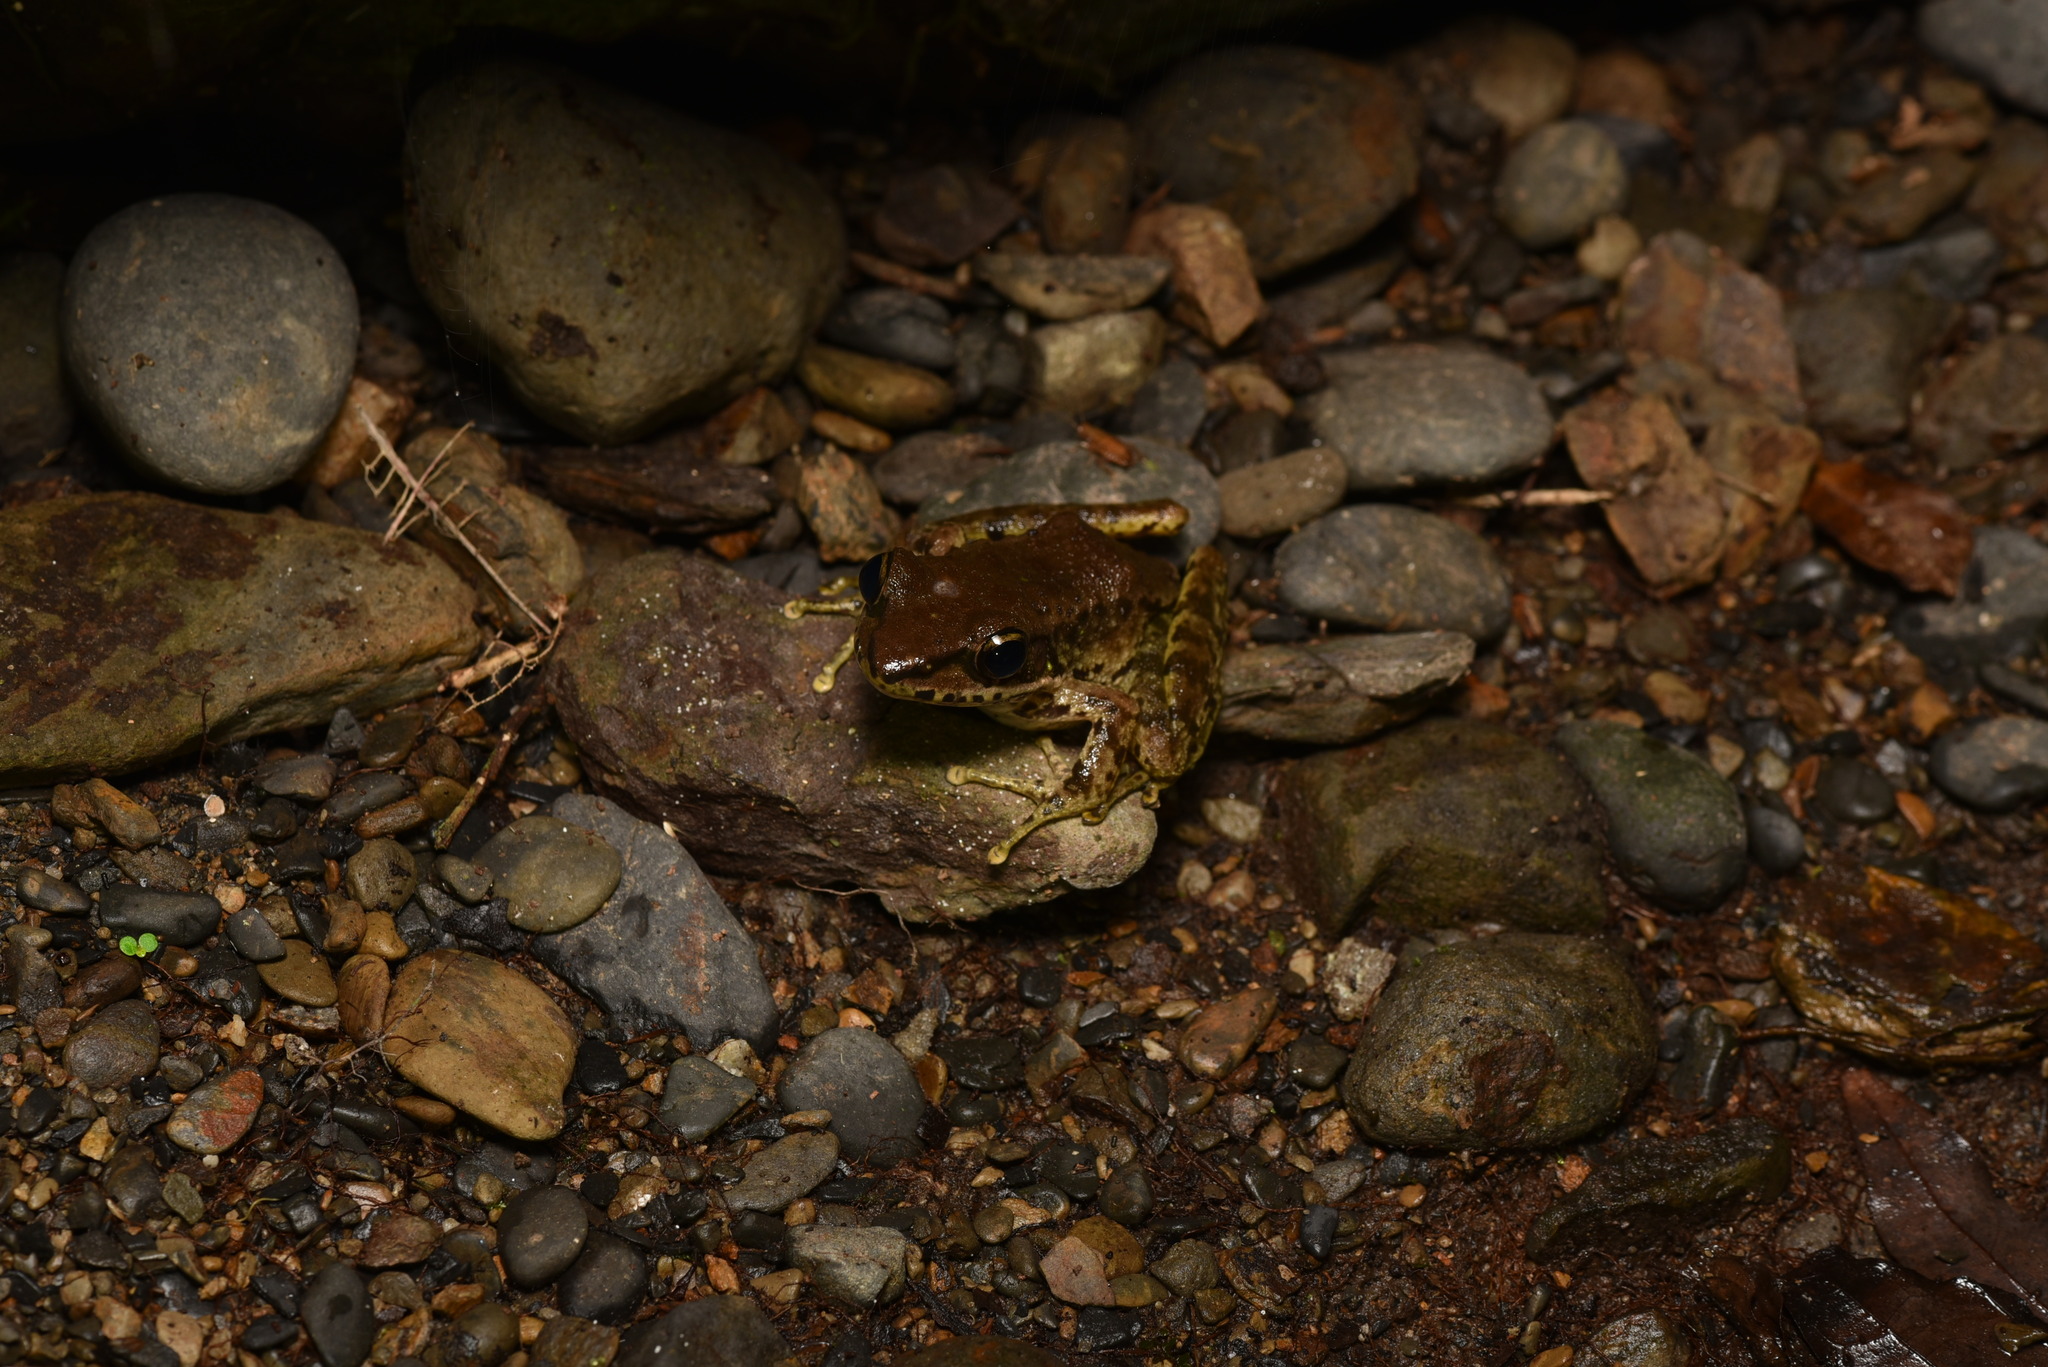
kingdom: Animalia
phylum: Chordata
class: Amphibia
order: Anura
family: Ranidae
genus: Odorrana
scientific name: Odorrana swinhoana
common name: Bangkimtsing frog
